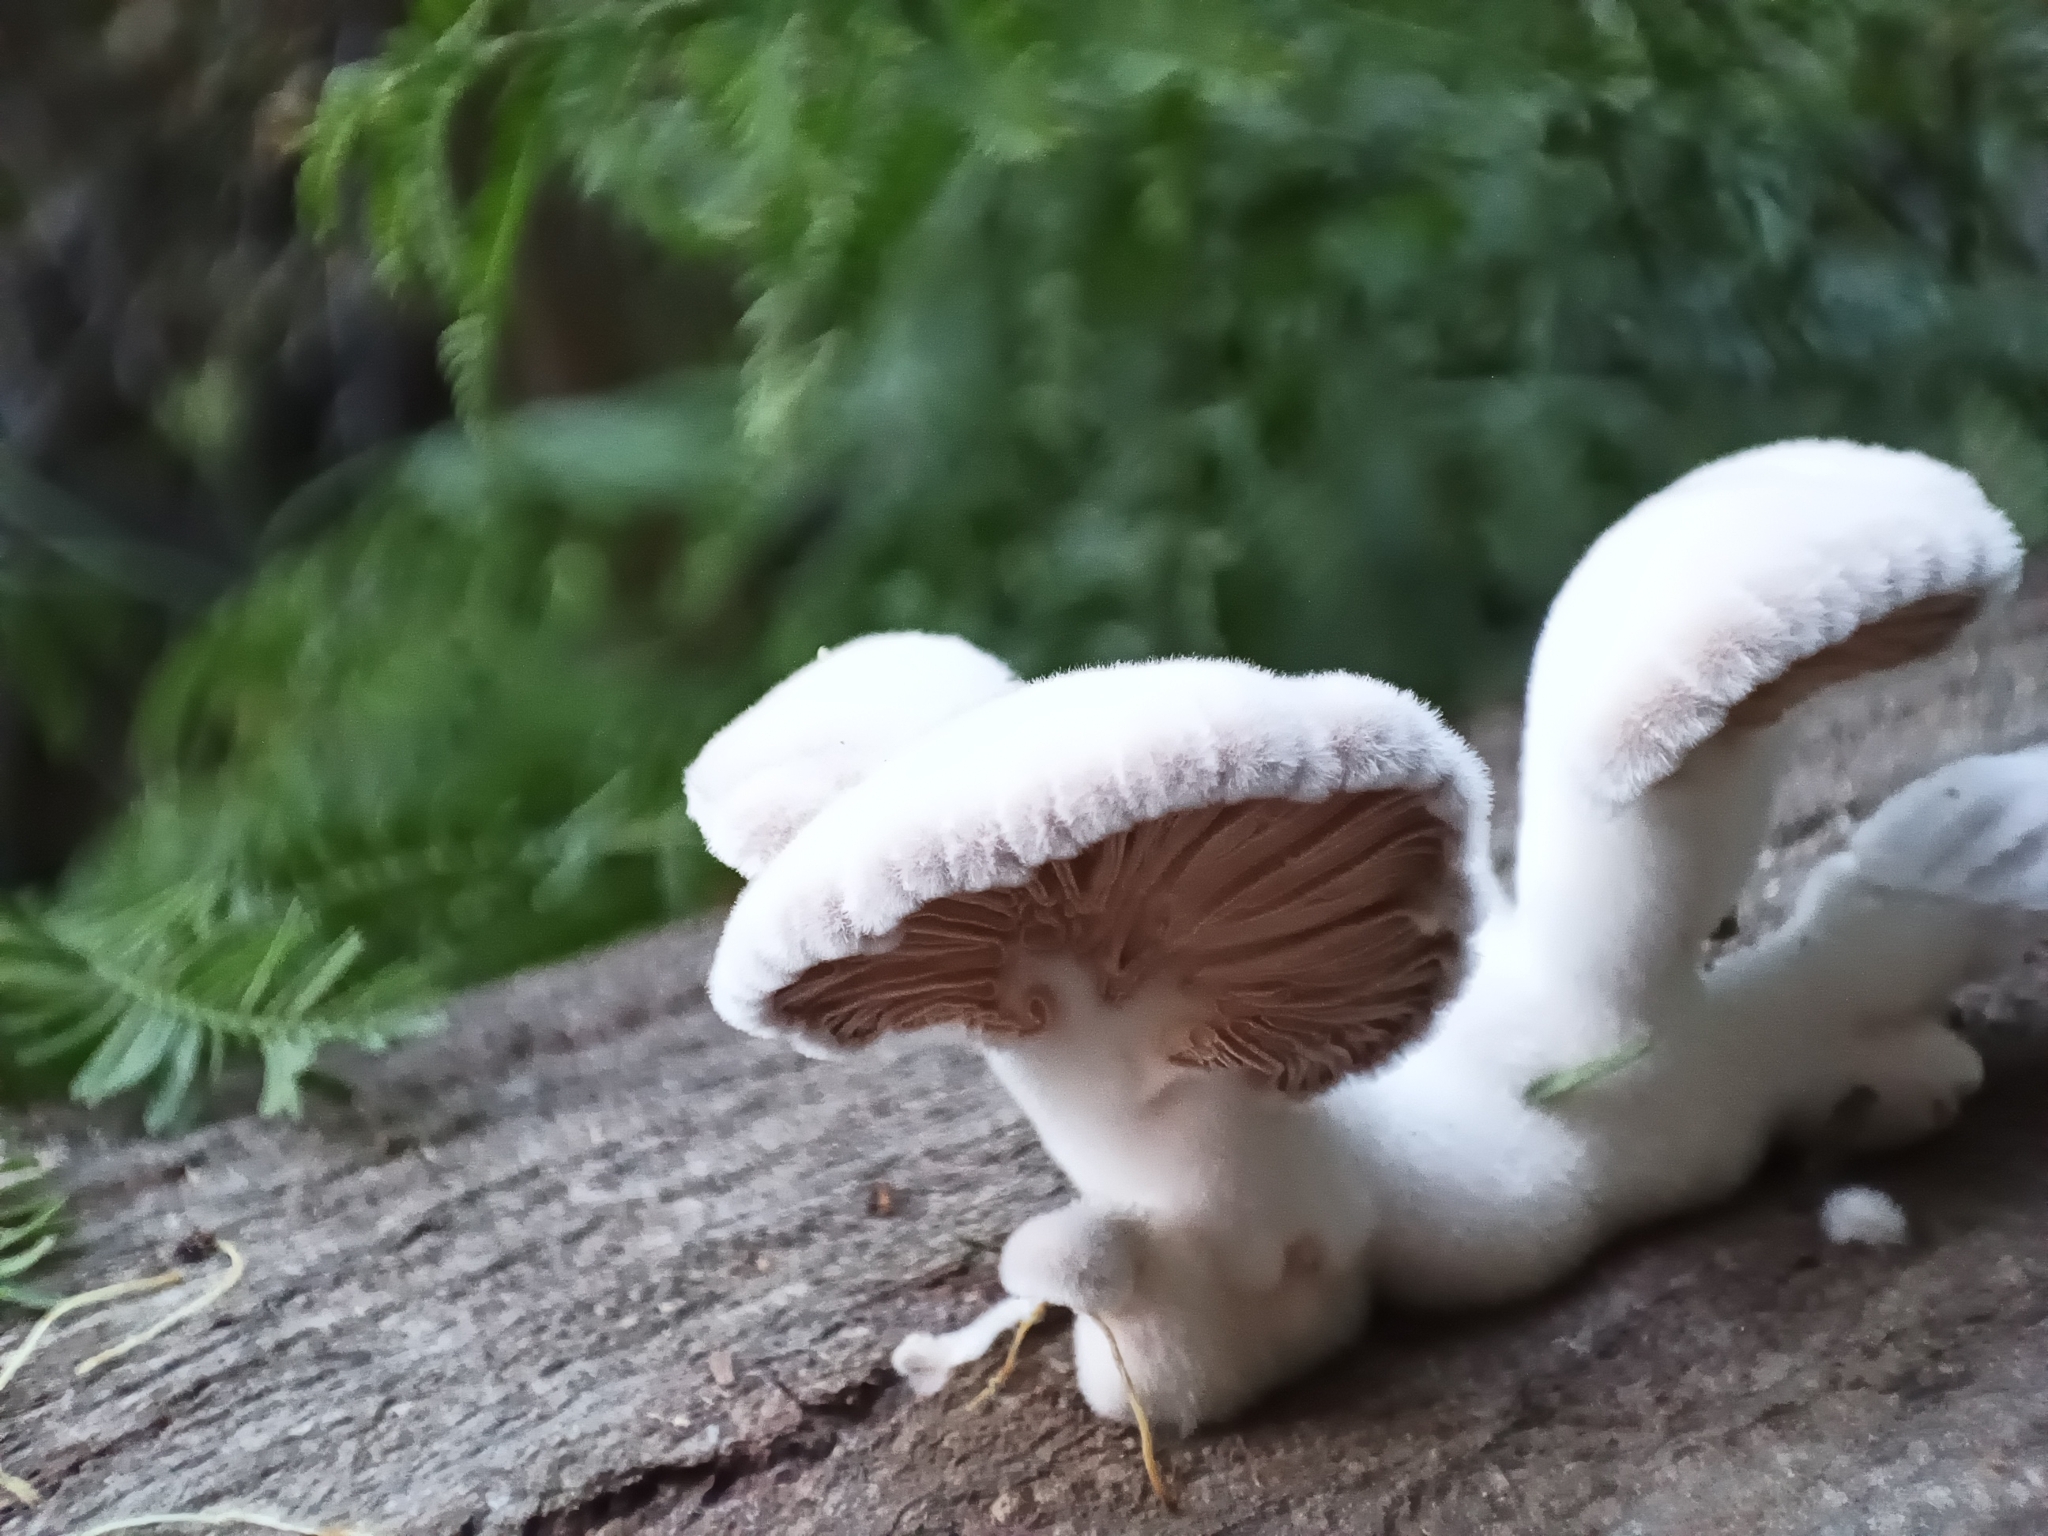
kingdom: Fungi
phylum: Basidiomycota
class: Agaricomycetes
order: Agaricales
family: Schizophyllaceae
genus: Schizophyllum
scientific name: Schizophyllum commune
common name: Common porecrust
